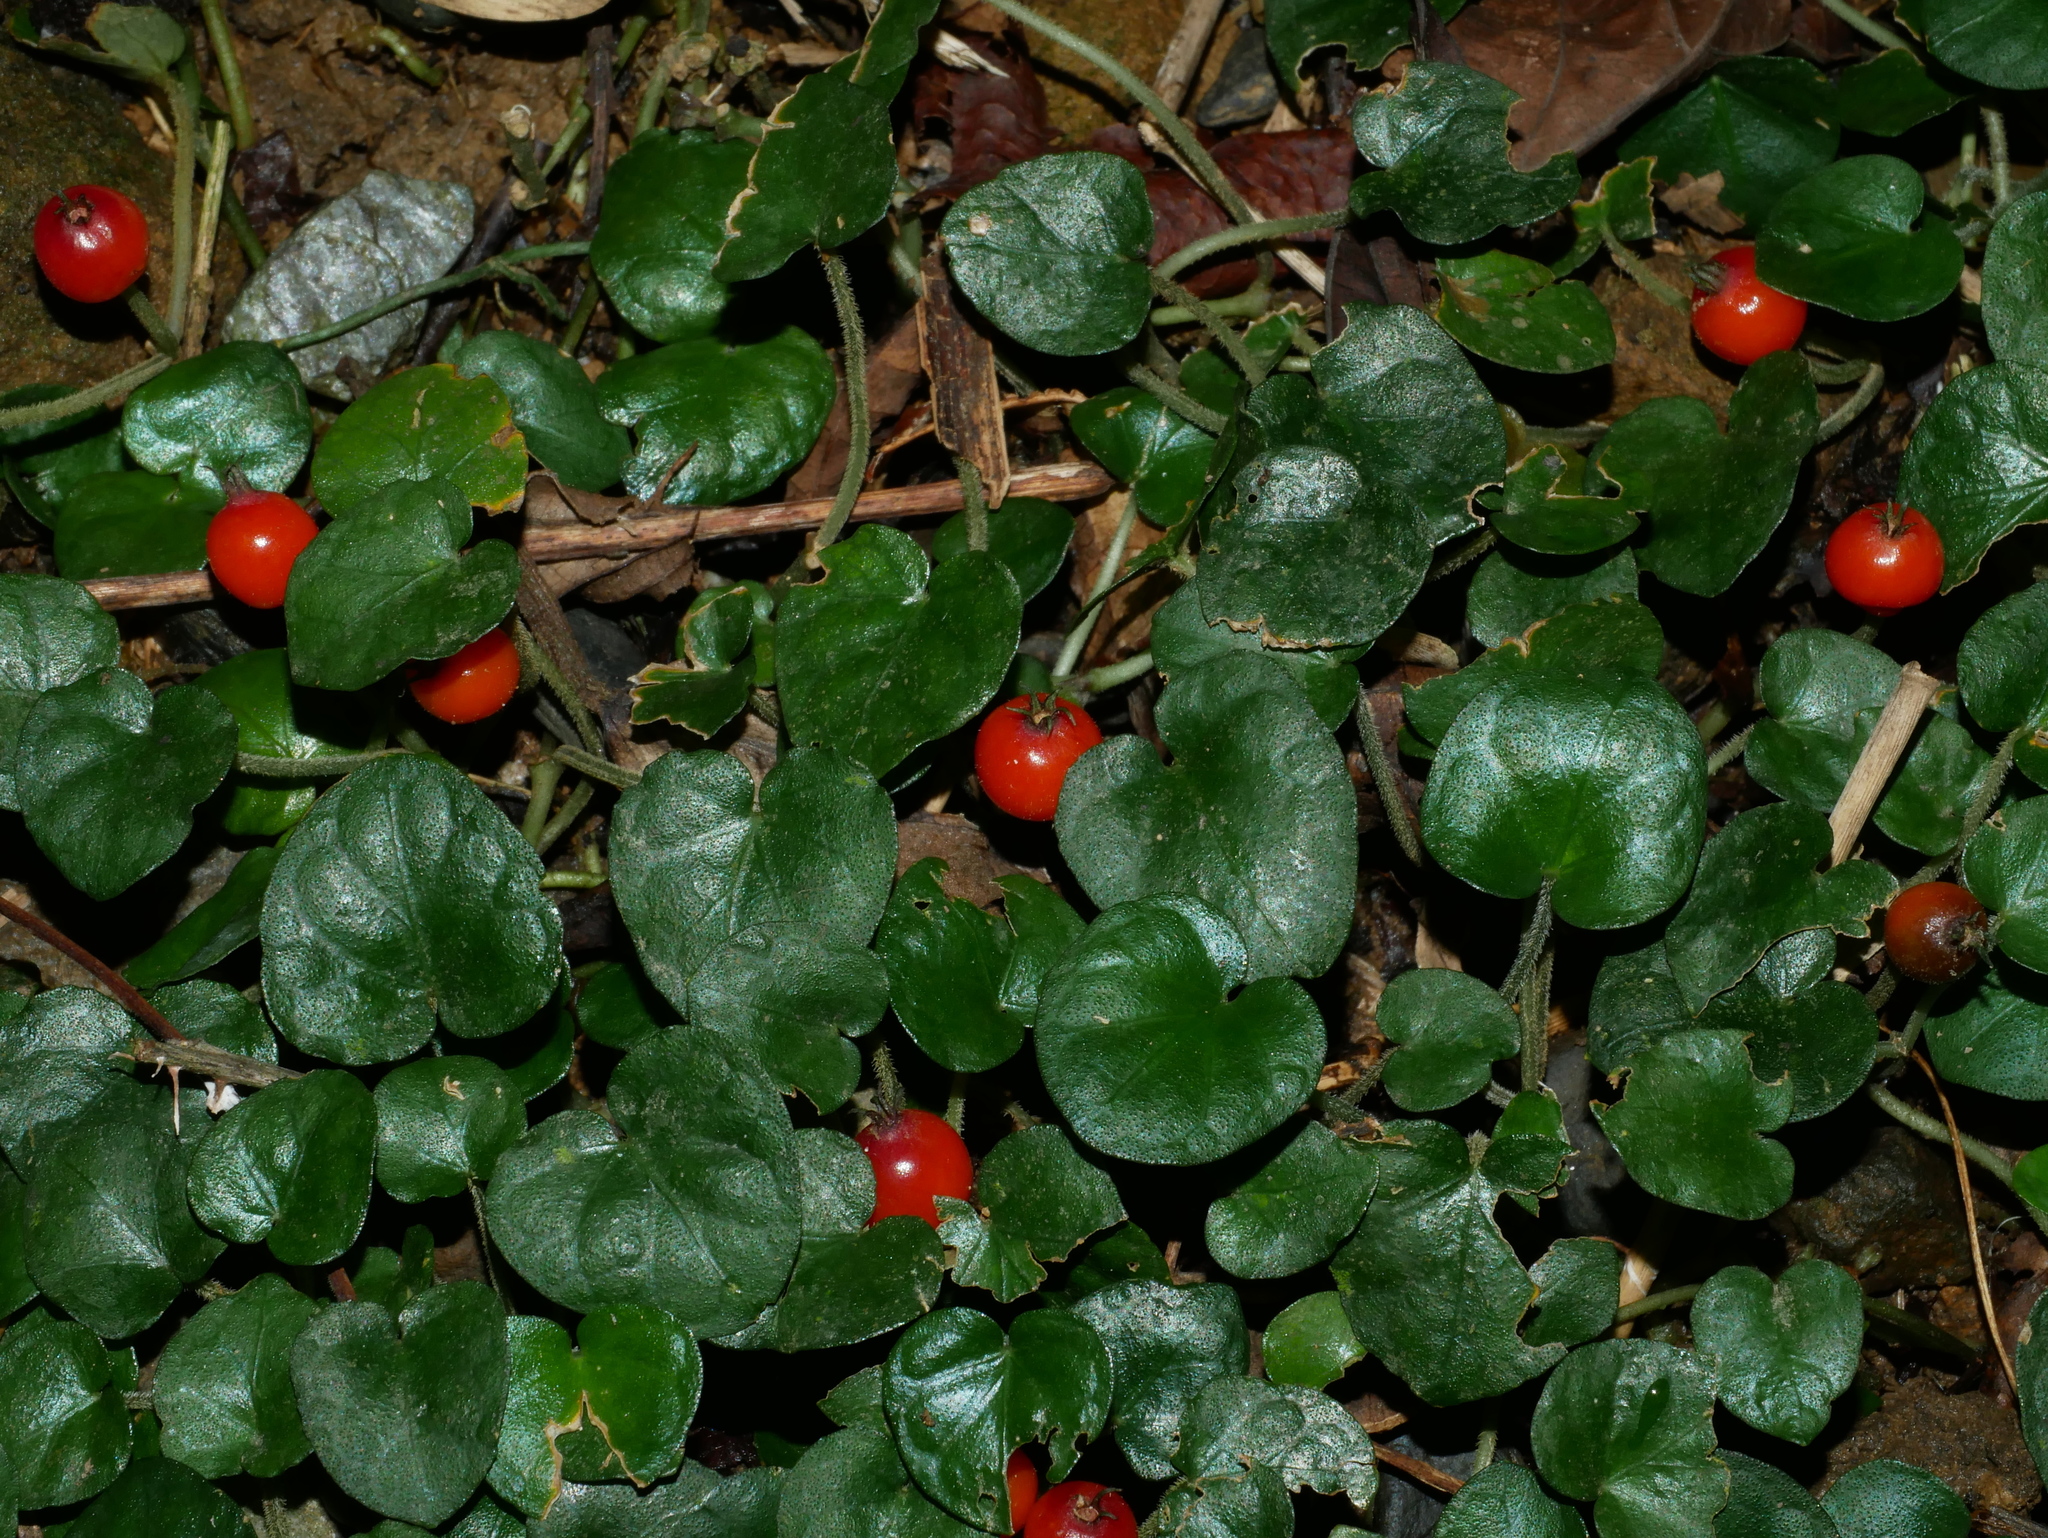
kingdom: Plantae
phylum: Tracheophyta
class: Magnoliopsida
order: Gentianales
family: Rubiaceae
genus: Geophila
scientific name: Geophila herbacea
